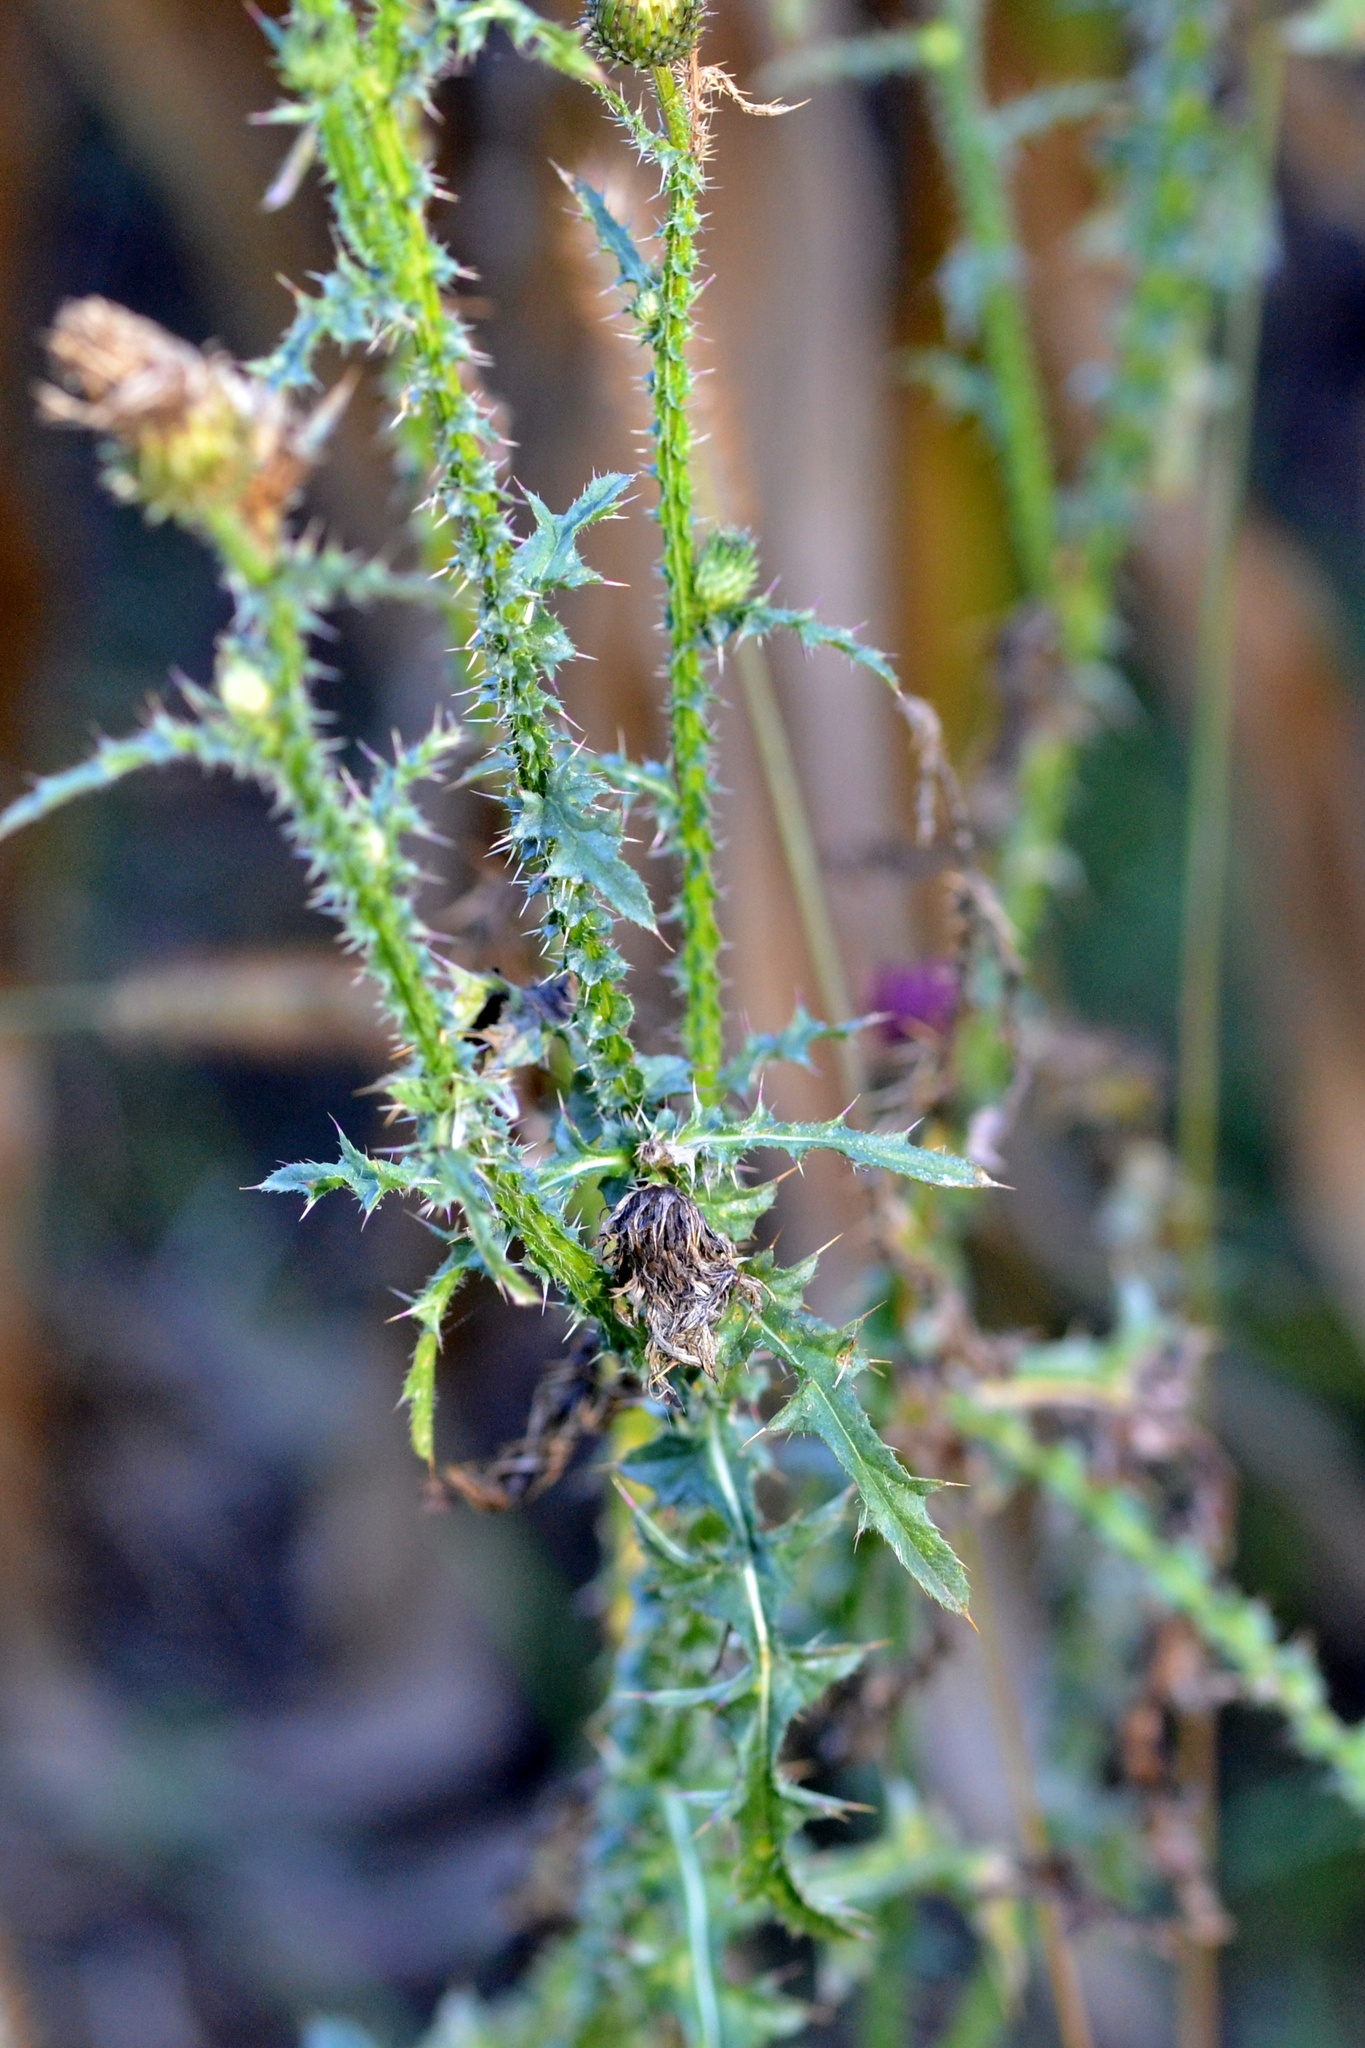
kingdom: Plantae
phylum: Tracheophyta
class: Magnoliopsida
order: Asterales
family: Asteraceae
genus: Carduus
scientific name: Carduus acanthoides
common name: Plumeless thistle
